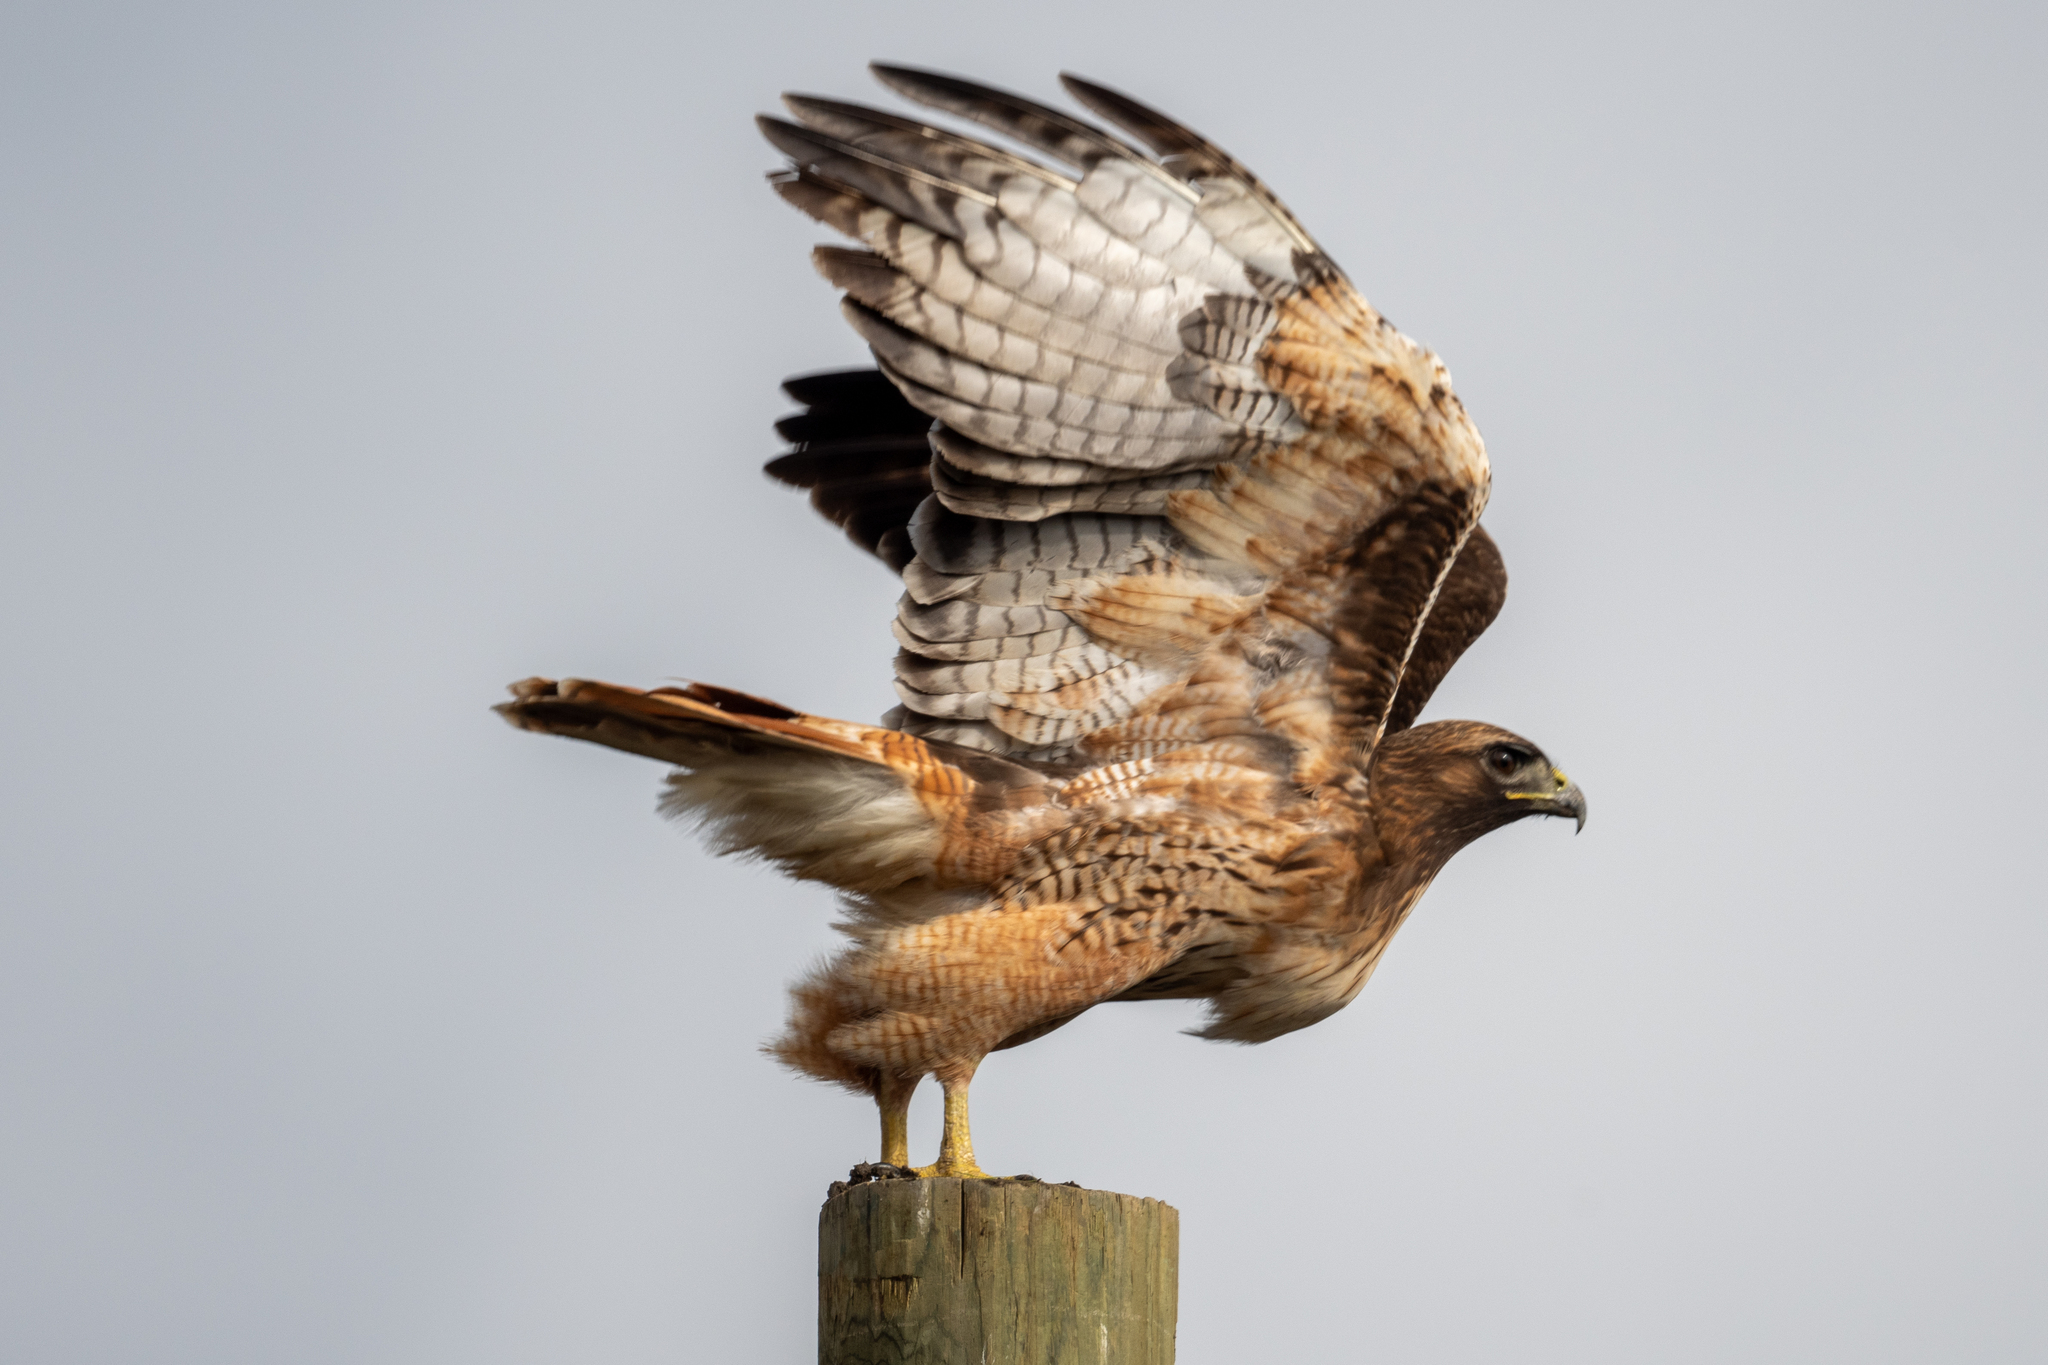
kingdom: Animalia
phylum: Chordata
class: Aves
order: Accipitriformes
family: Accipitridae
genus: Buteo
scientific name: Buteo jamaicensis
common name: Red-tailed hawk
